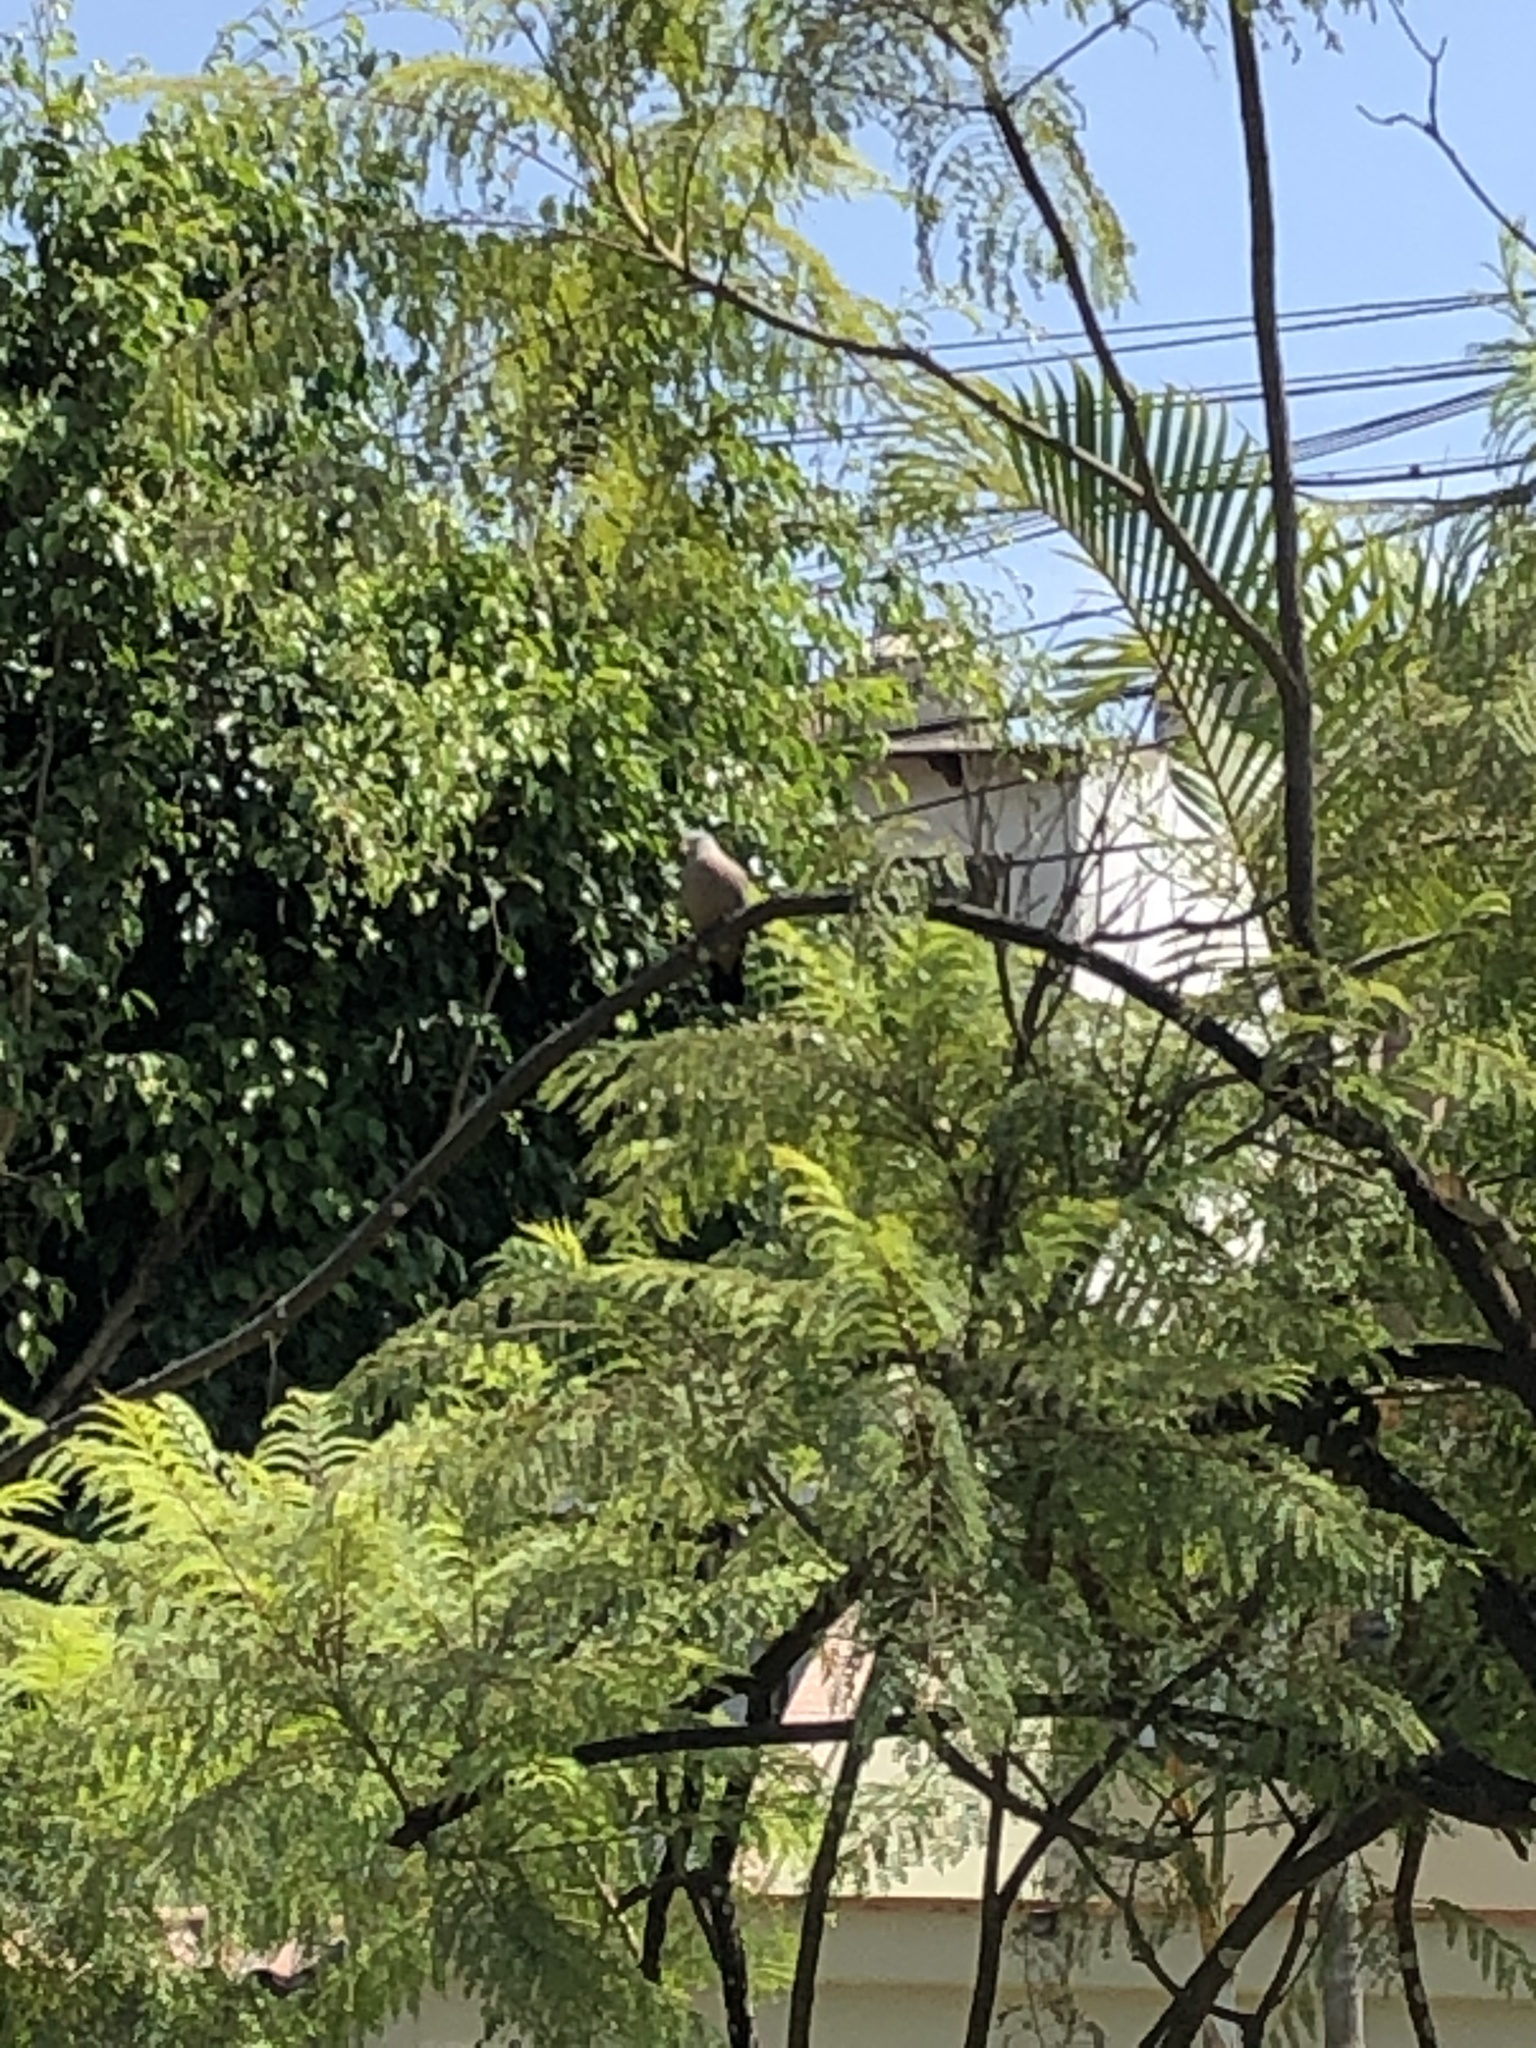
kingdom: Animalia
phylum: Chordata
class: Aves
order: Columbiformes
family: Columbidae
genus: Columbina
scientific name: Columbina cruziana
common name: Croaking ground dove
